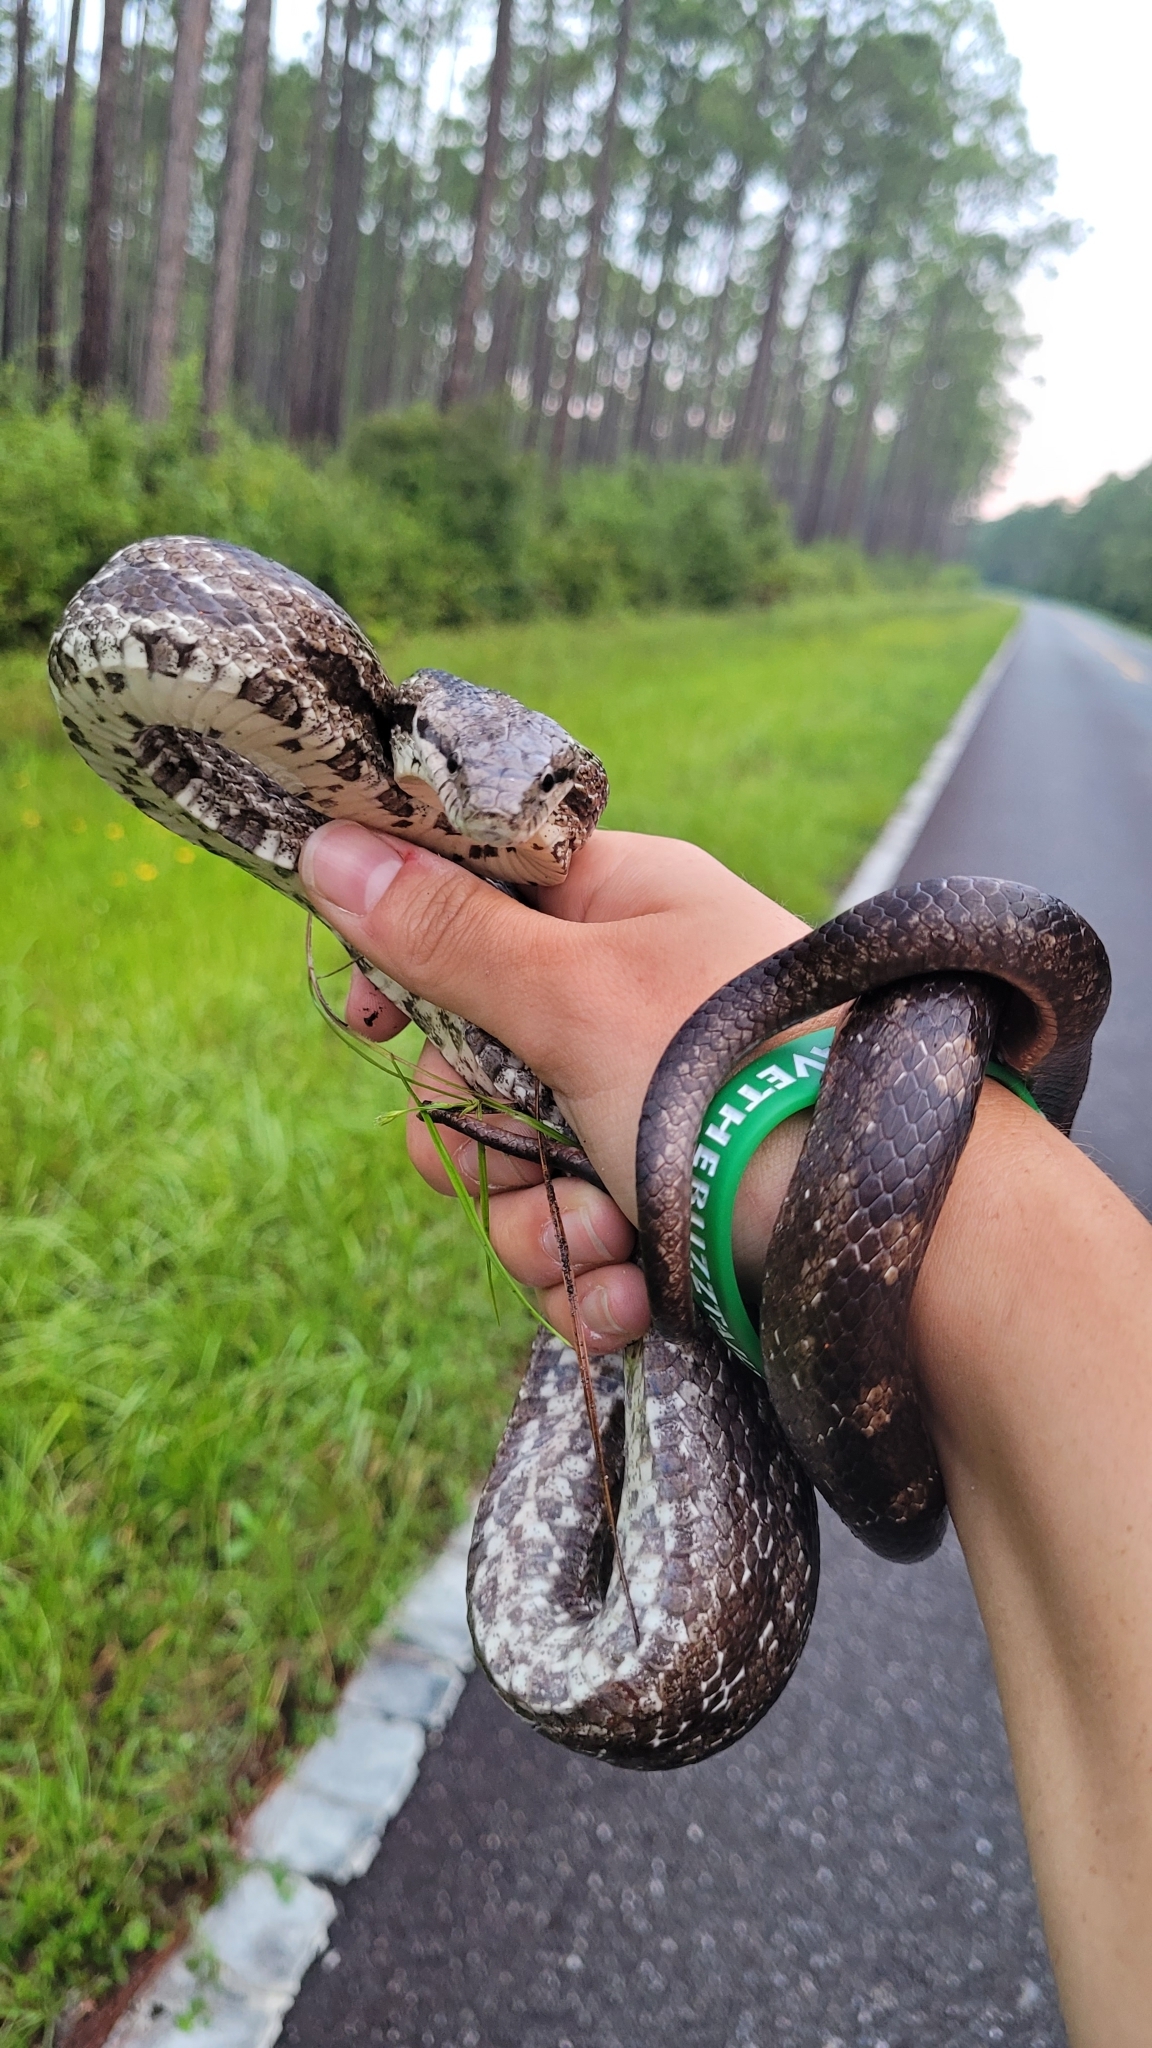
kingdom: Animalia
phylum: Chordata
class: Squamata
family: Colubridae
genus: Pantherophis
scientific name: Pantherophis alleghaniensis
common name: Eastern rat snake
